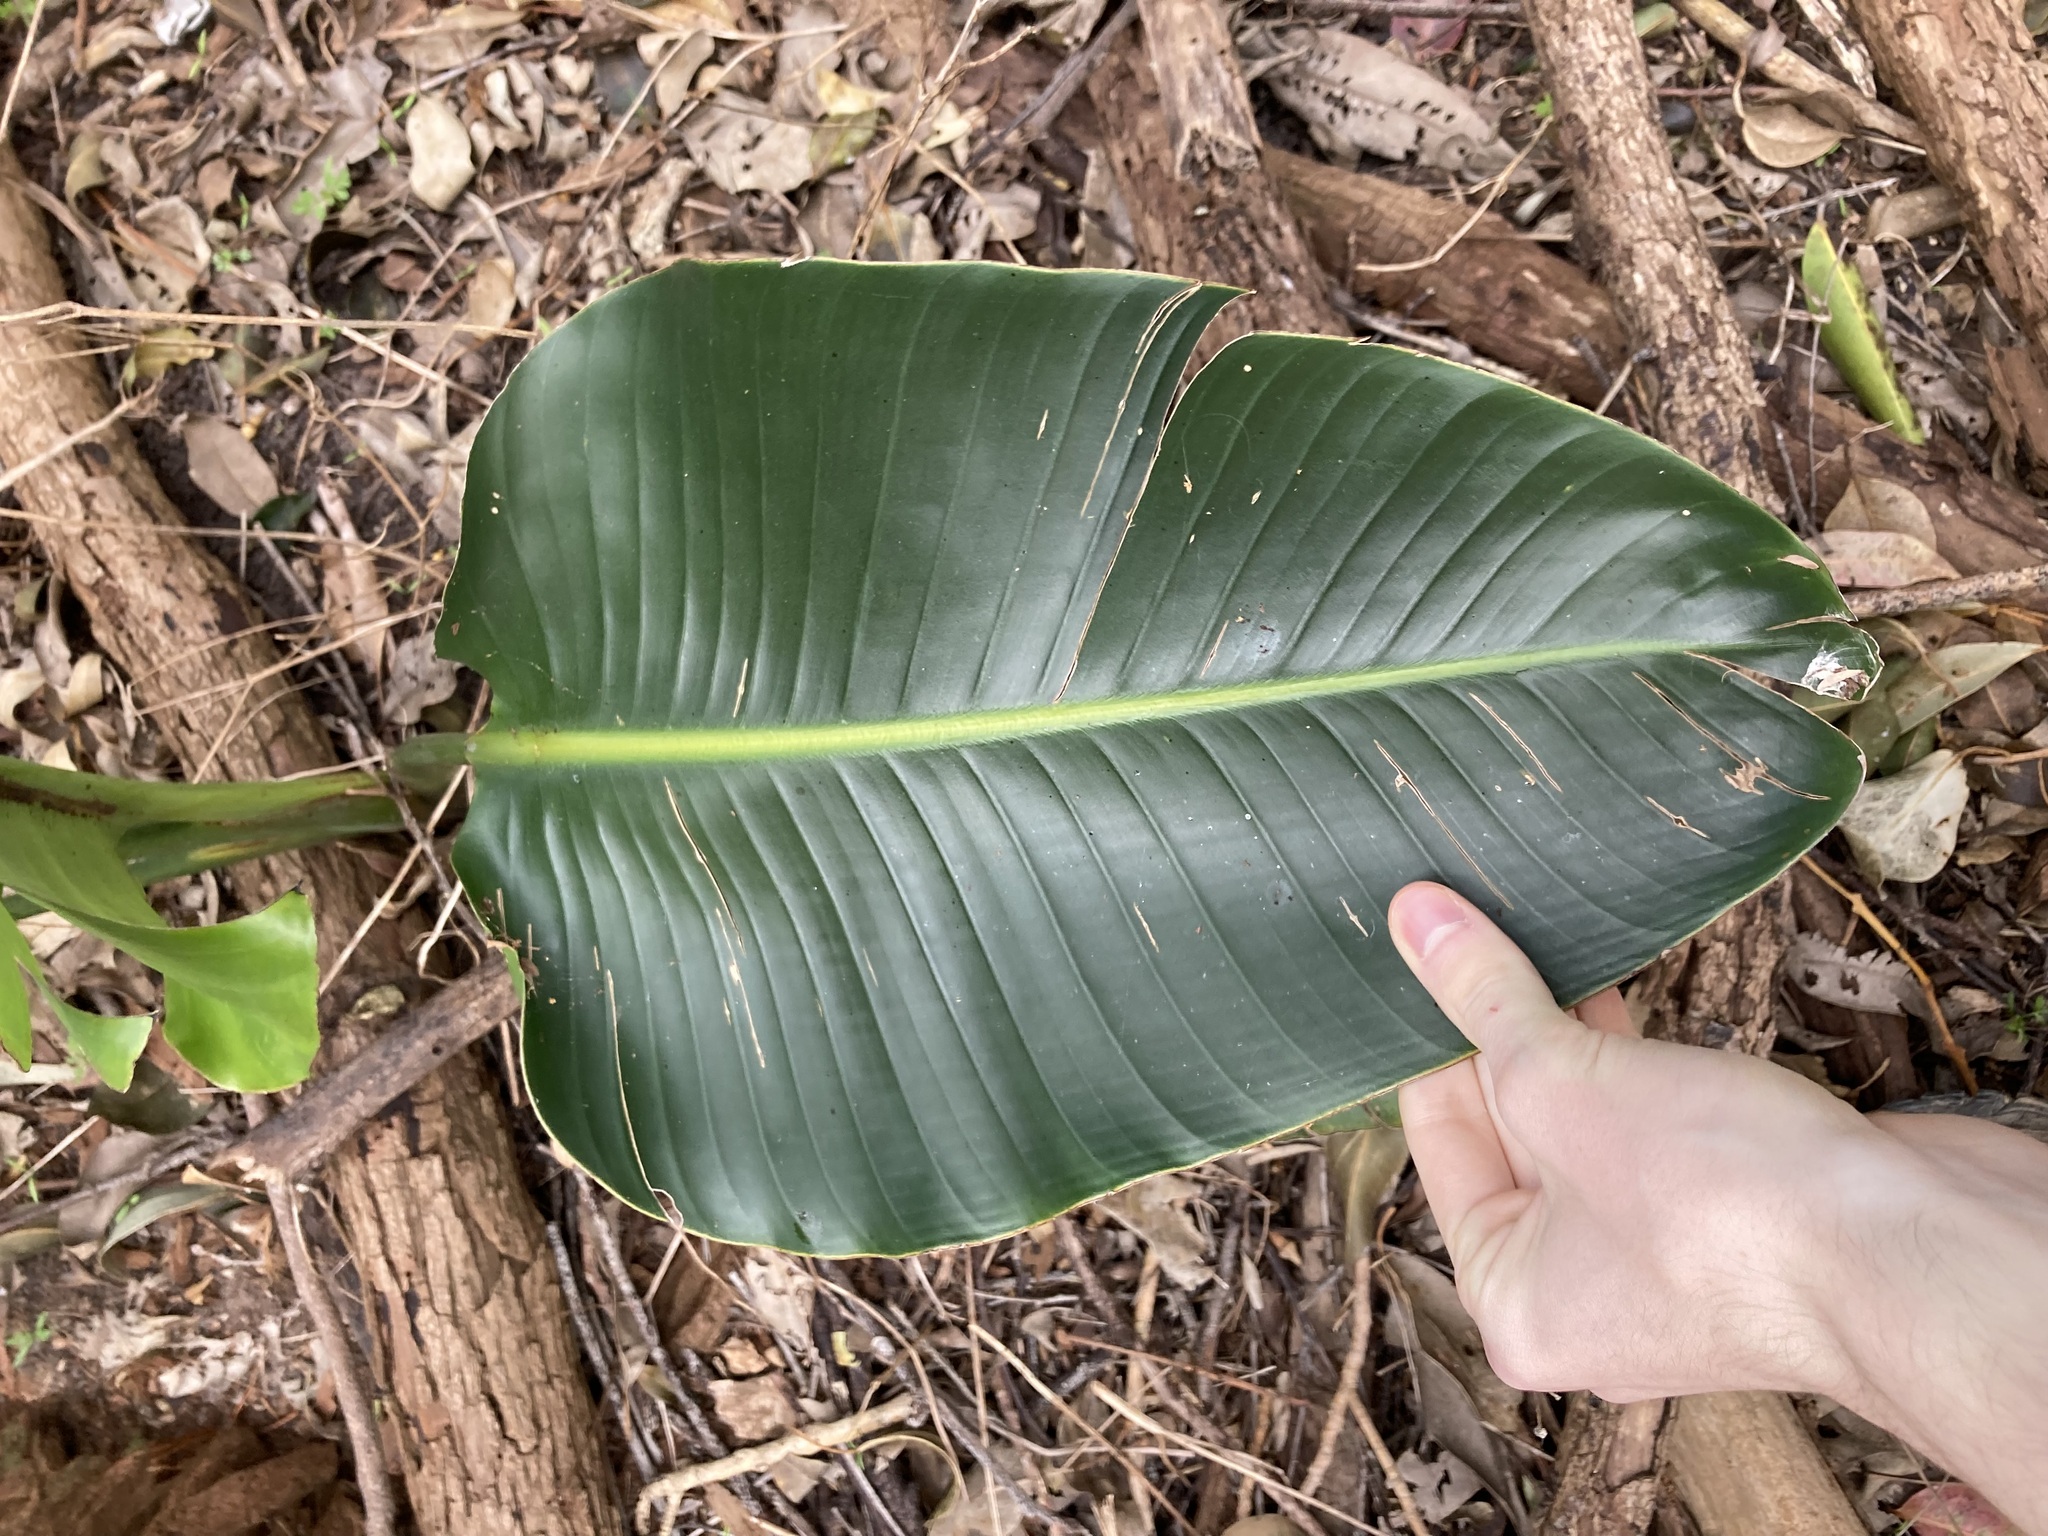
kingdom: Plantae
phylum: Tracheophyta
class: Liliopsida
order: Zingiberales
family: Strelitziaceae
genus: Strelitzia
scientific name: Strelitzia nicolai
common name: Bird-of-paradise tree
